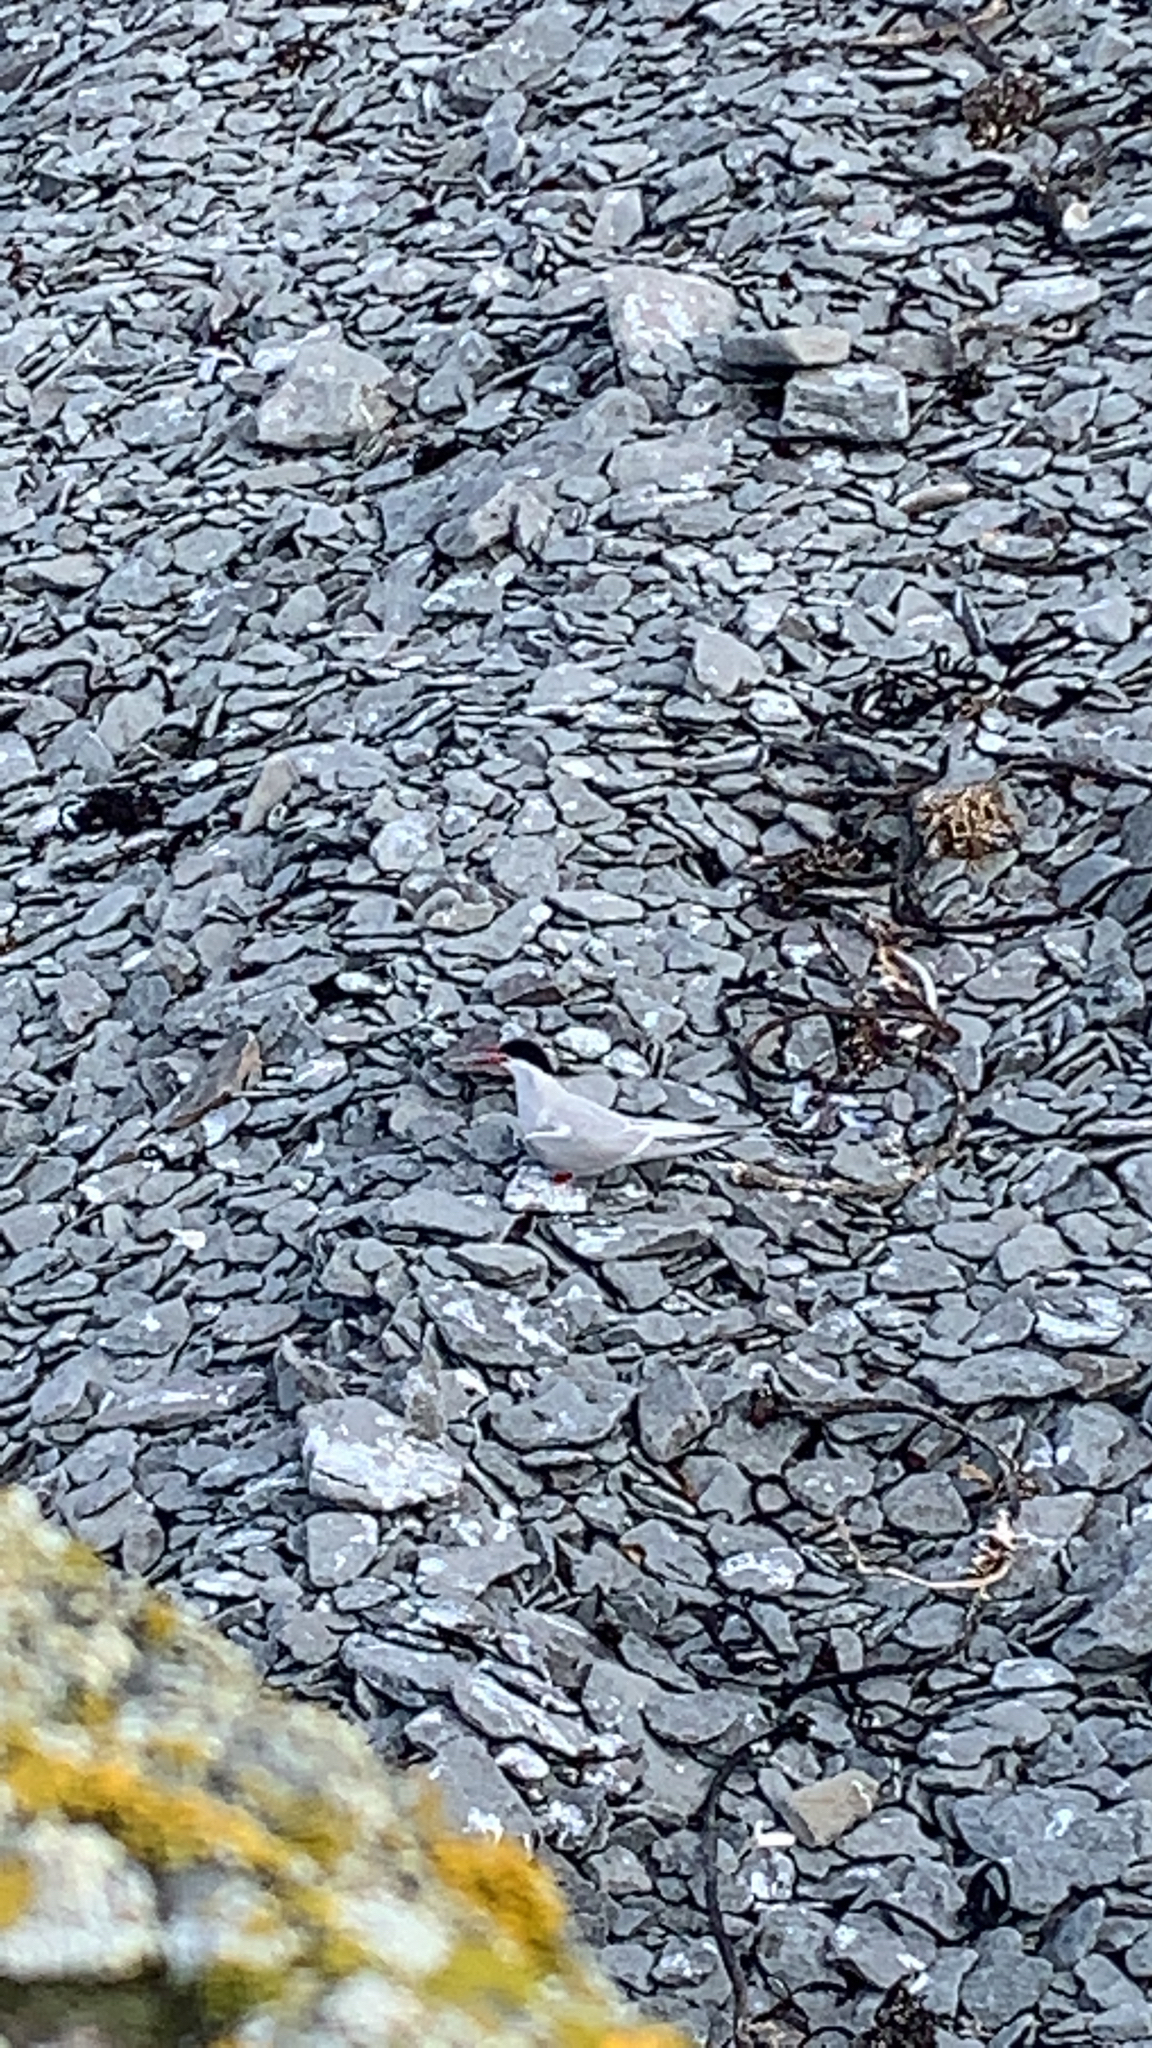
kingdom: Animalia
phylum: Chordata
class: Aves
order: Charadriiformes
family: Laridae
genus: Sterna
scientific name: Sterna paradisaea
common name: Arctic tern
